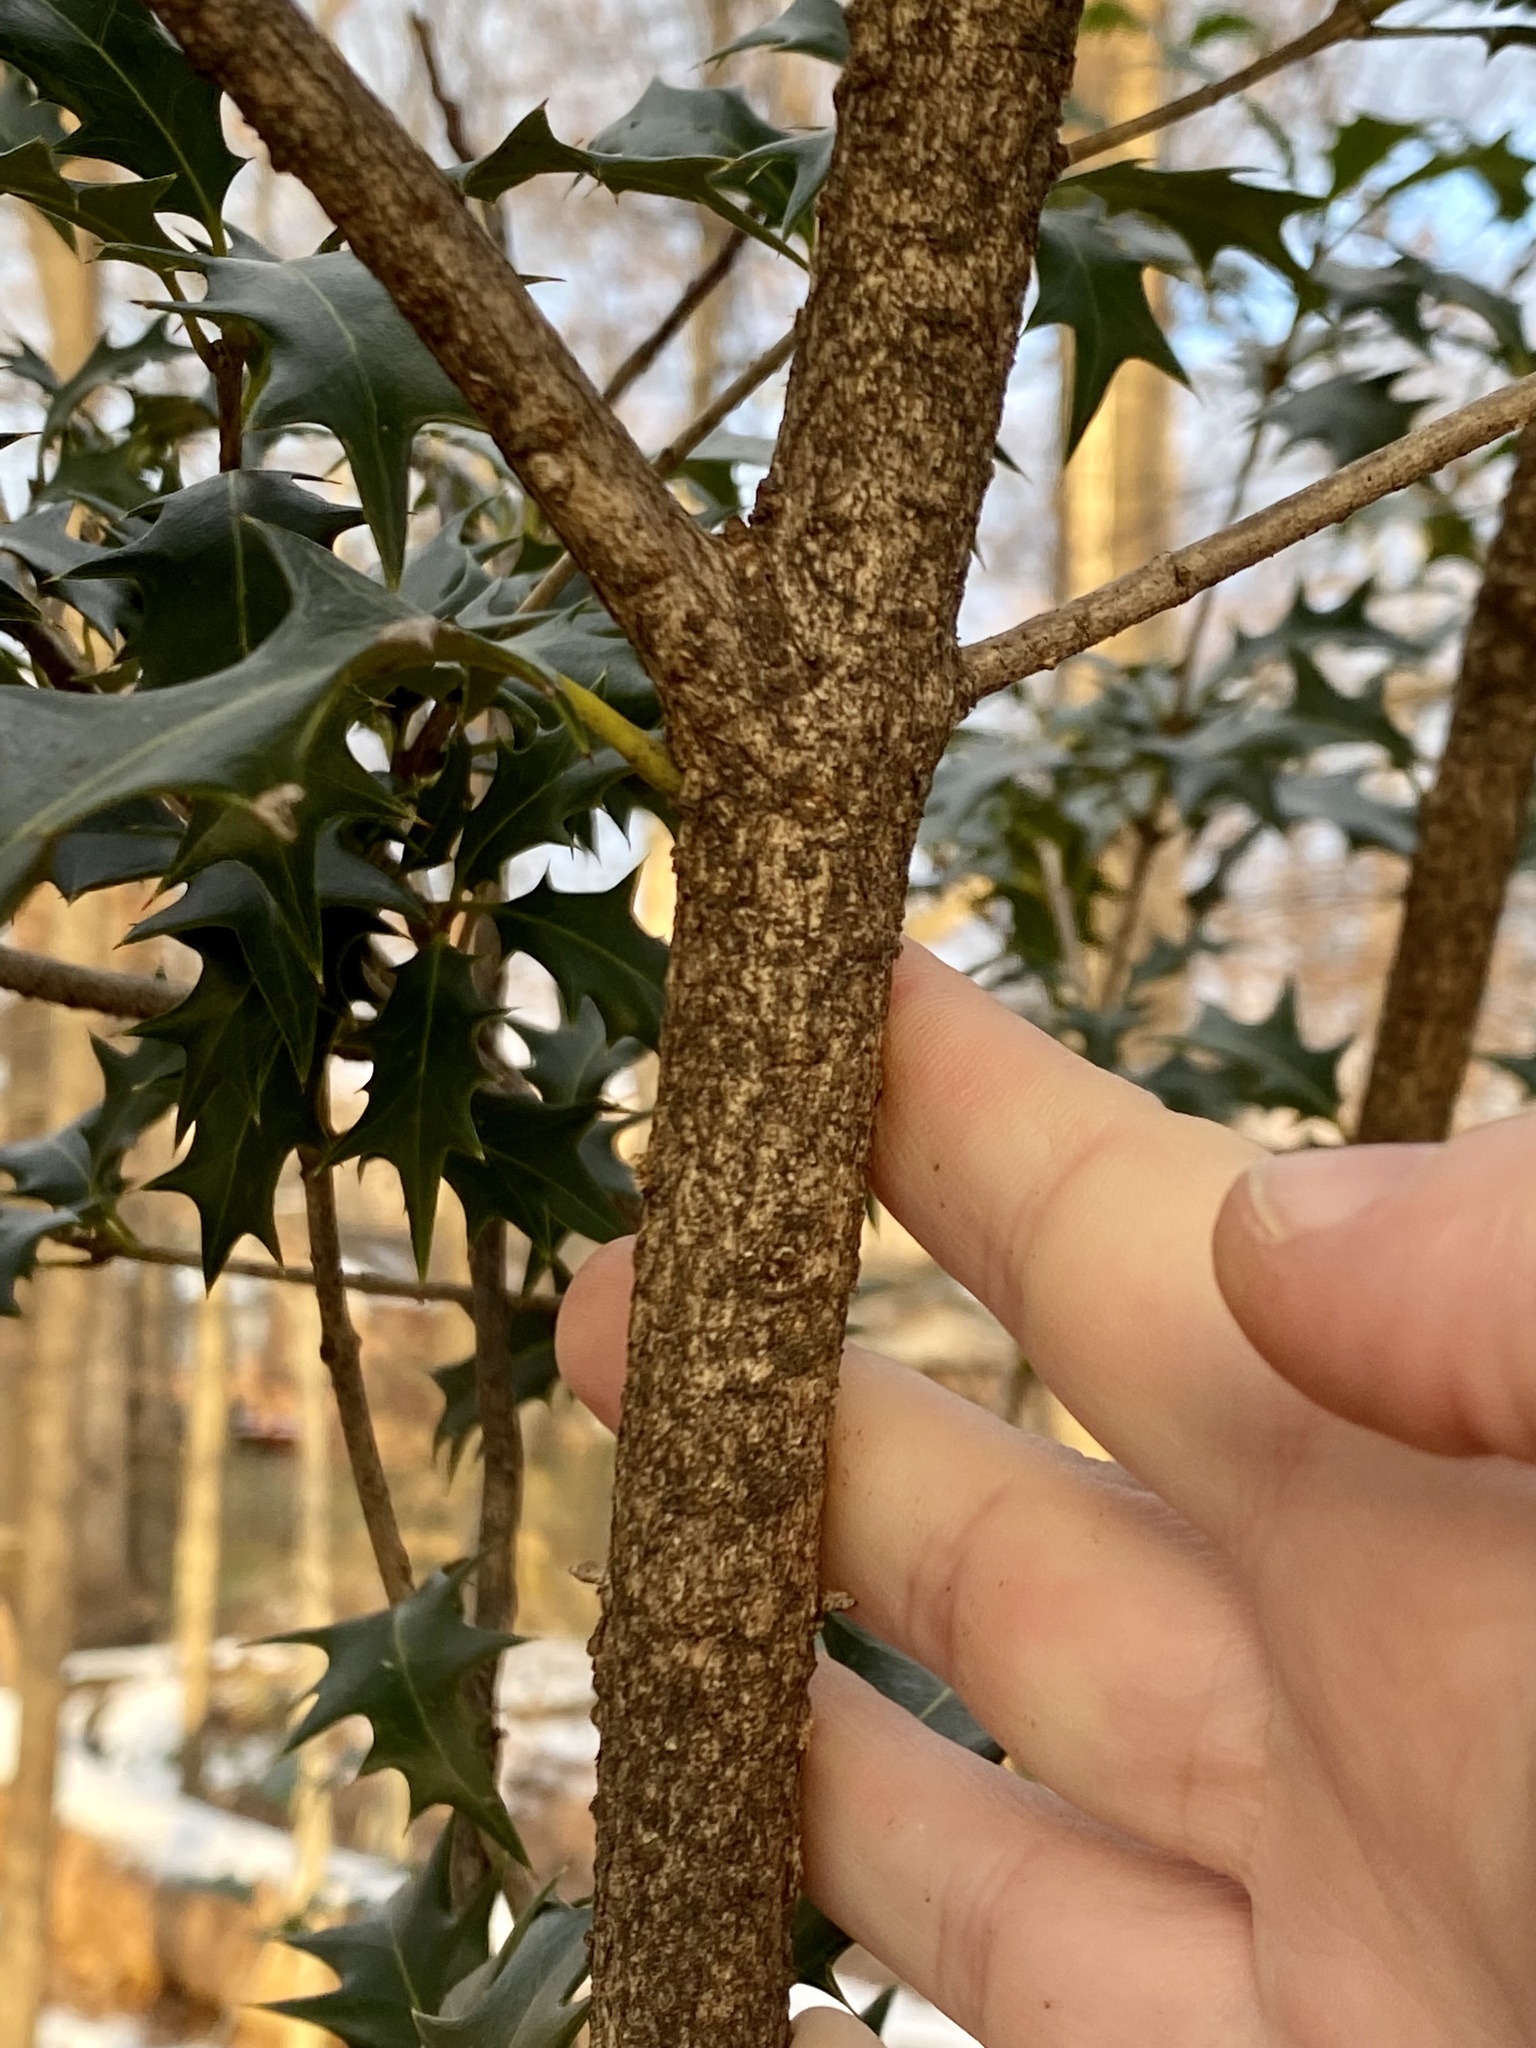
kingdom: Plantae
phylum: Tracheophyta
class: Magnoliopsida
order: Lamiales
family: Oleaceae
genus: Osmanthus
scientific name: Osmanthus heterophyllus
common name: Holly osmanthus
